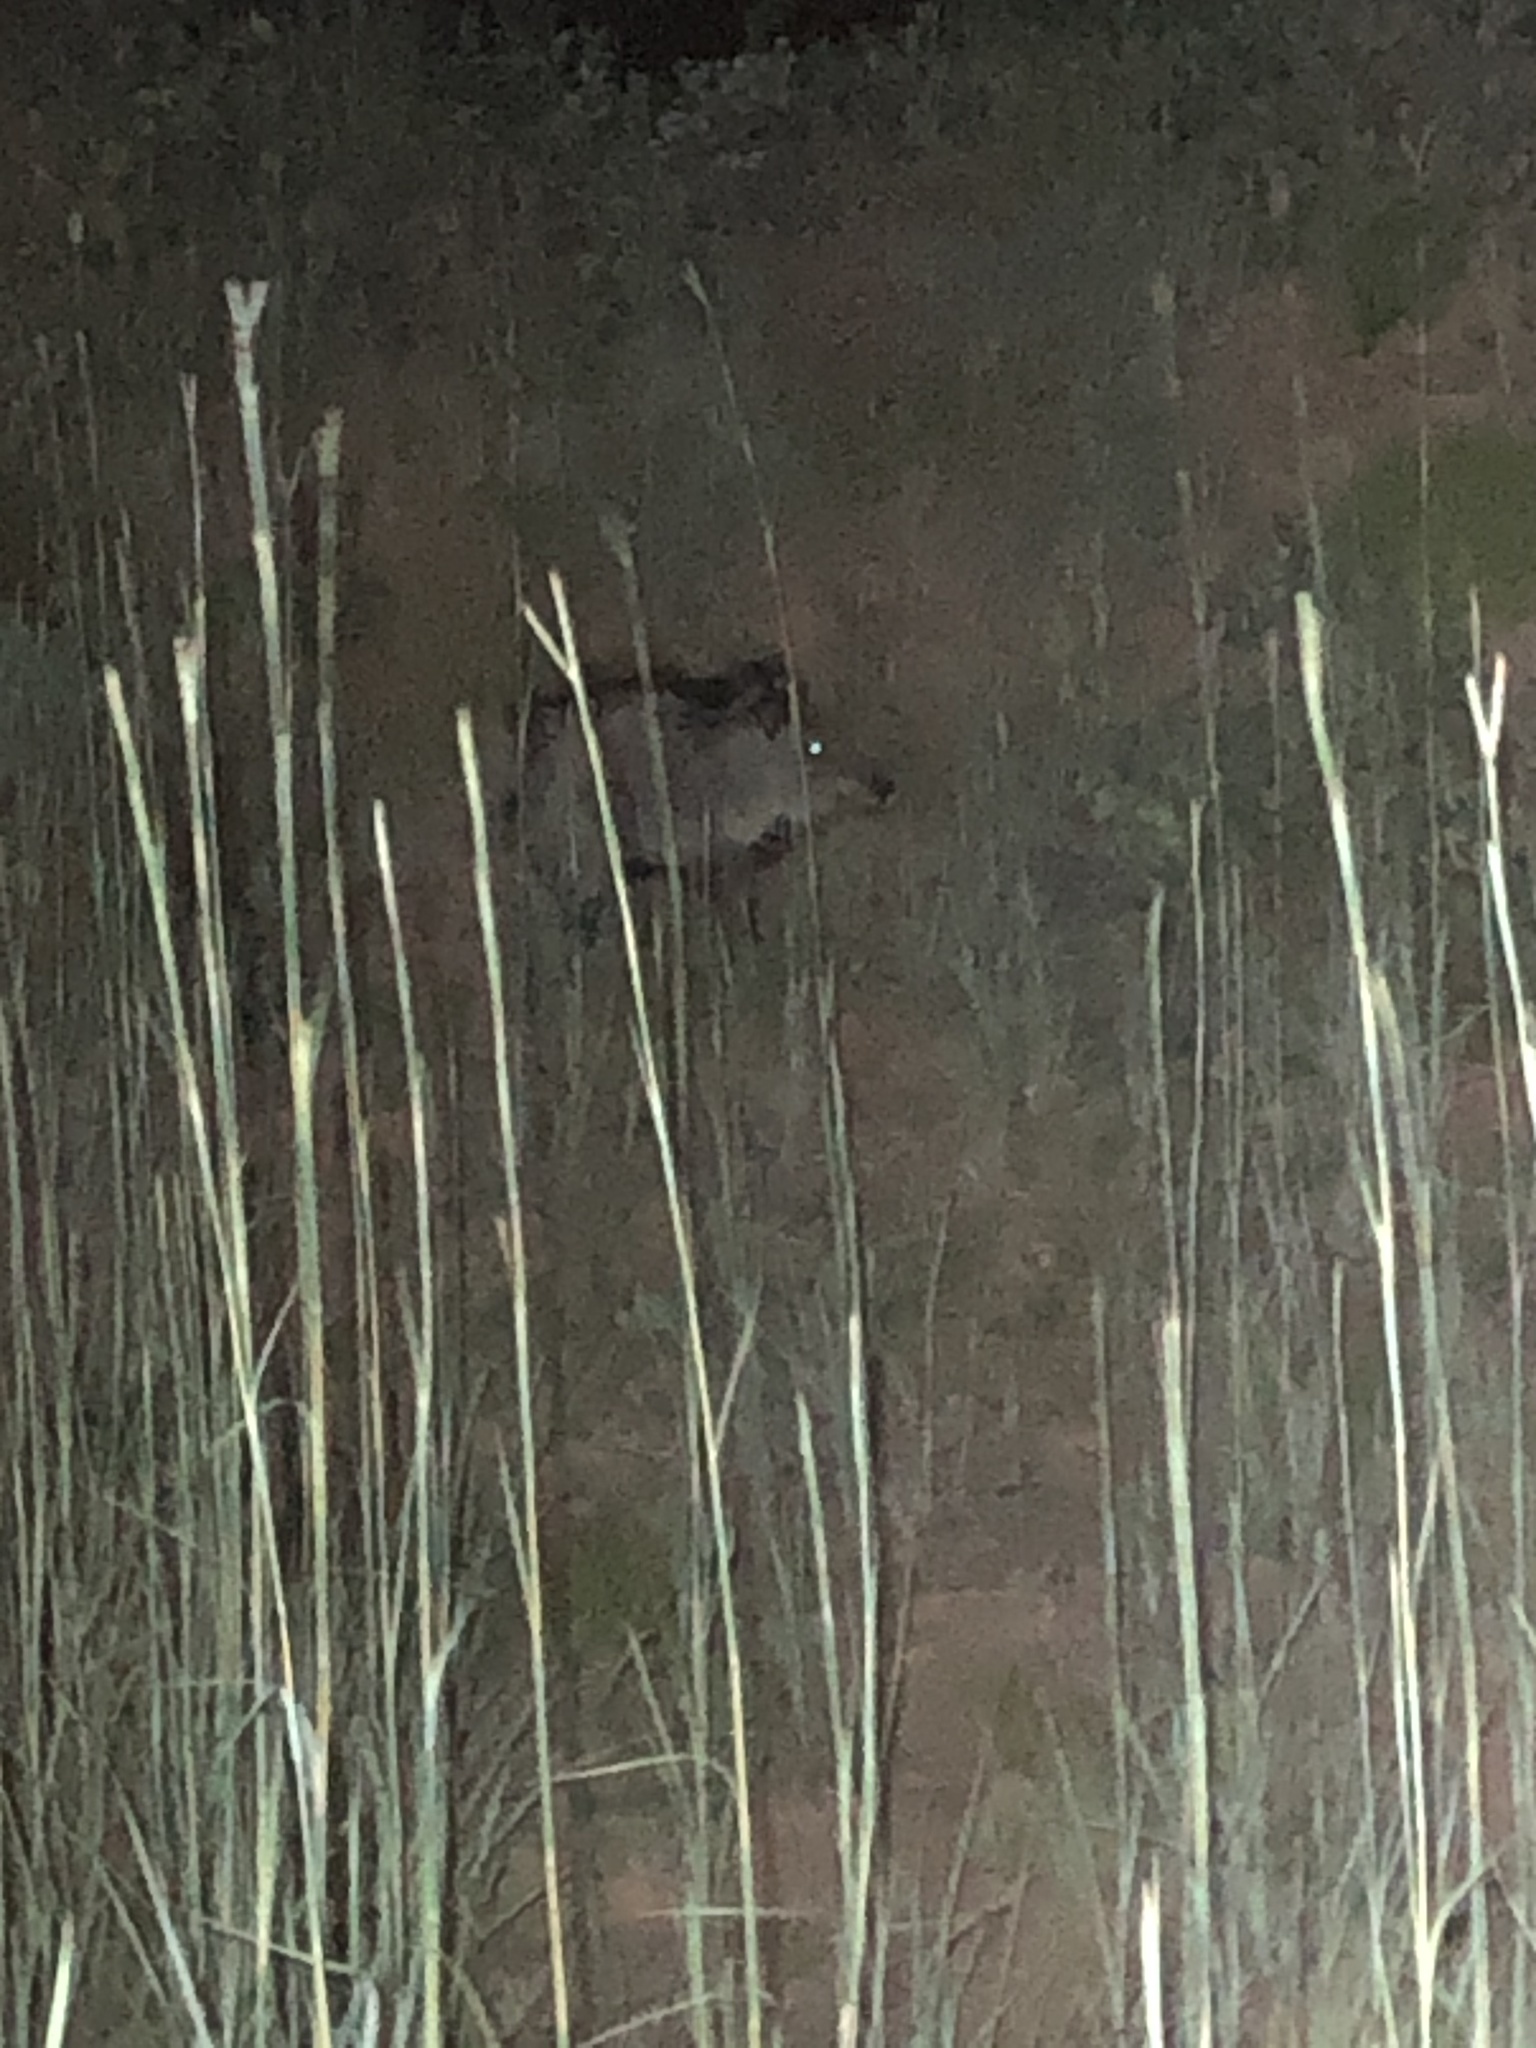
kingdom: Animalia
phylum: Chordata
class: Mammalia
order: Artiodactyla
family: Tayassuidae
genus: Pecari
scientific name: Pecari tajacu
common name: Collared peccary
